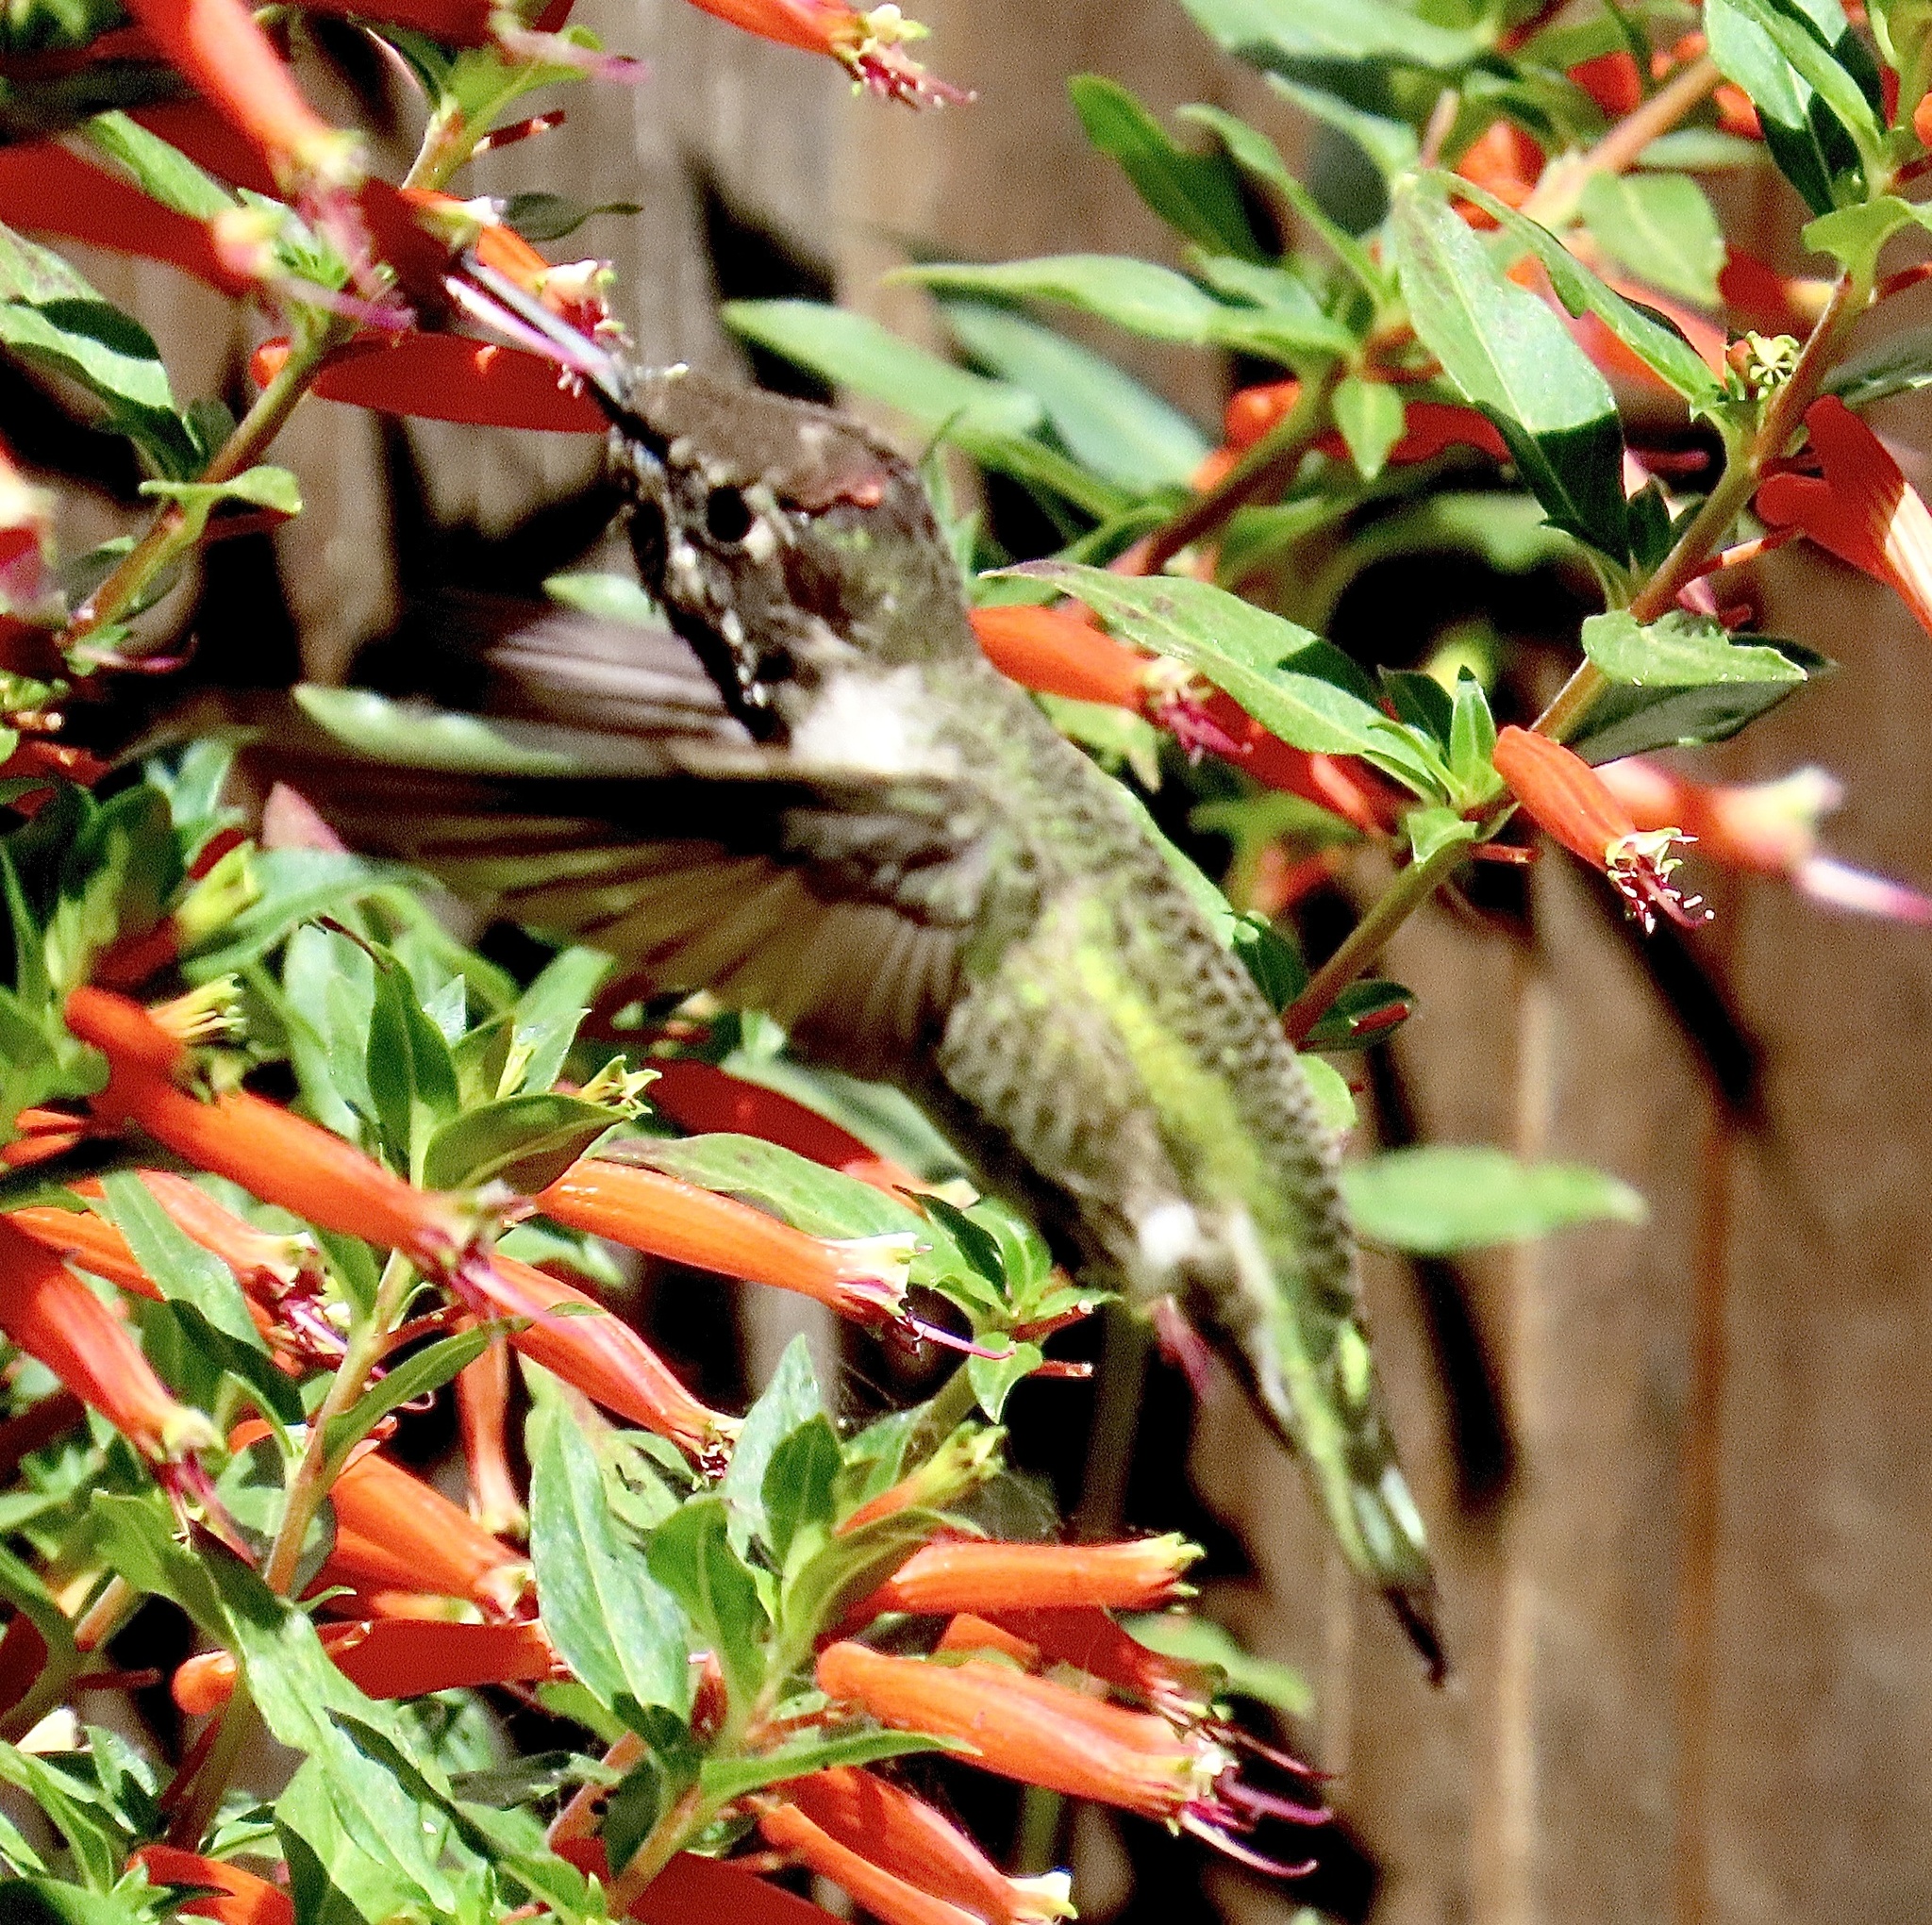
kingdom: Animalia
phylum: Chordata
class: Aves
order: Apodiformes
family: Trochilidae
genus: Calypte
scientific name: Calypte anna
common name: Anna's hummingbird
